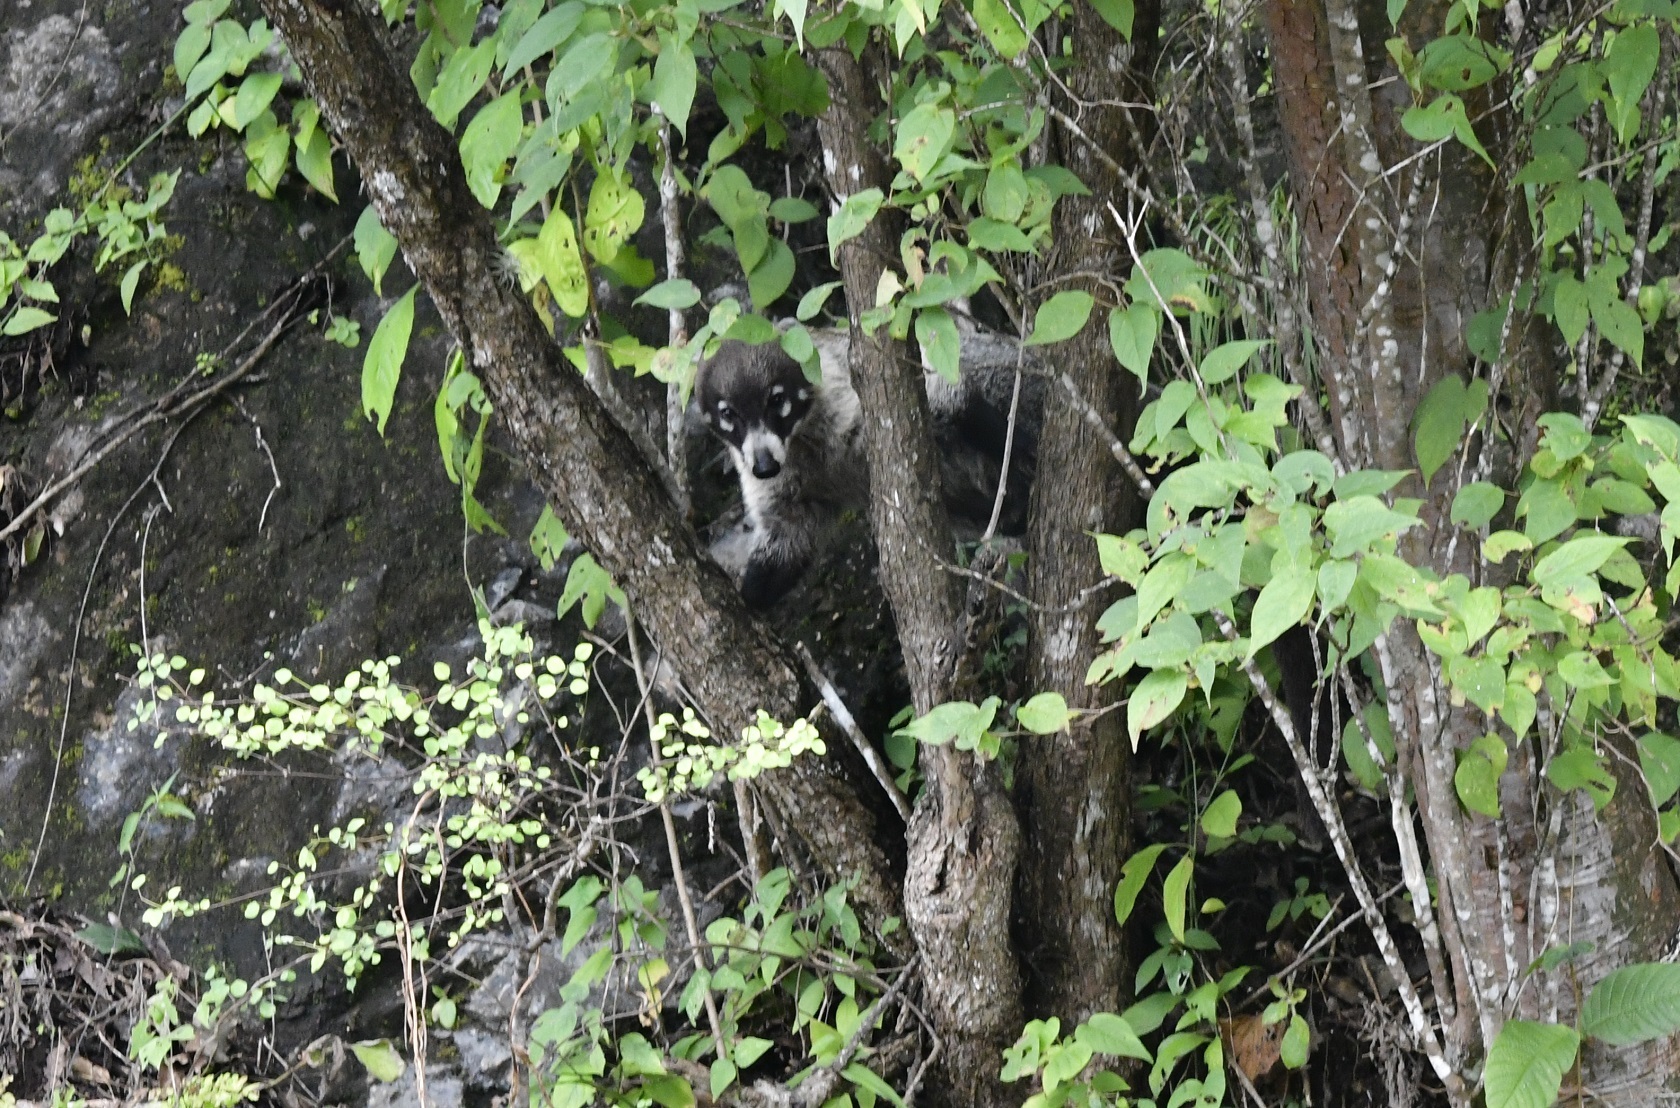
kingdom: Animalia
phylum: Chordata
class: Mammalia
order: Carnivora
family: Procyonidae
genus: Nasua
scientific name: Nasua narica
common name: White-nosed coati
